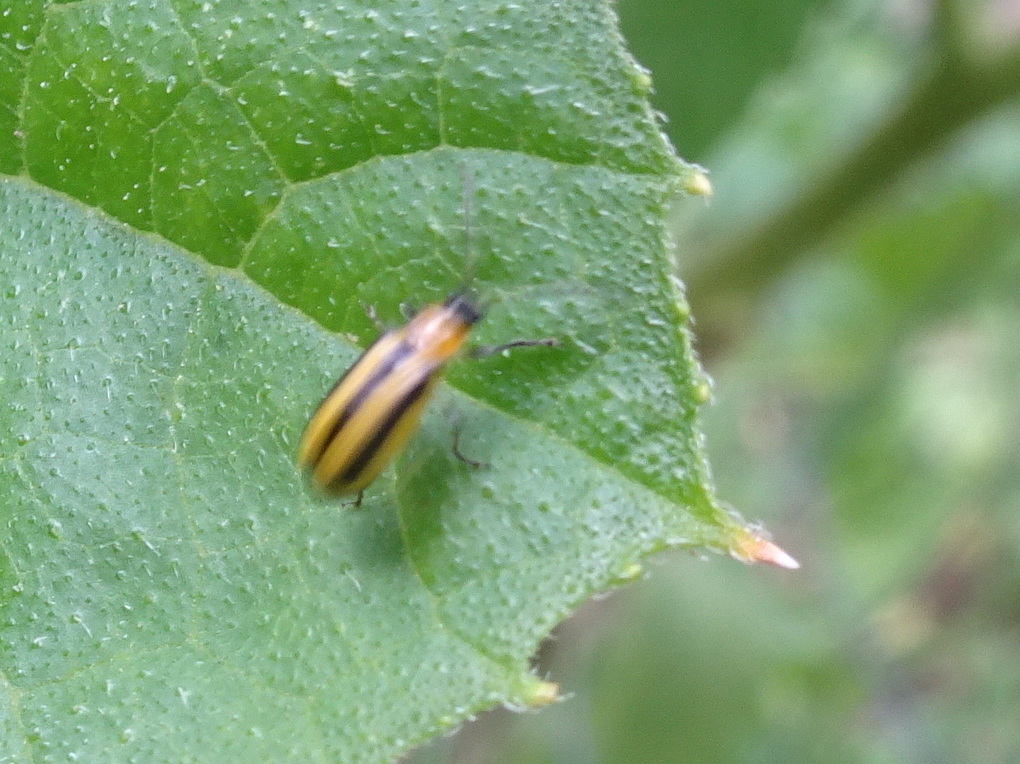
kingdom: Animalia
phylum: Arthropoda
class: Insecta
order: Coleoptera
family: Chrysomelidae
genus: Acalymma
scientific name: Acalymma vittatum
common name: Striped cucumber beetle
